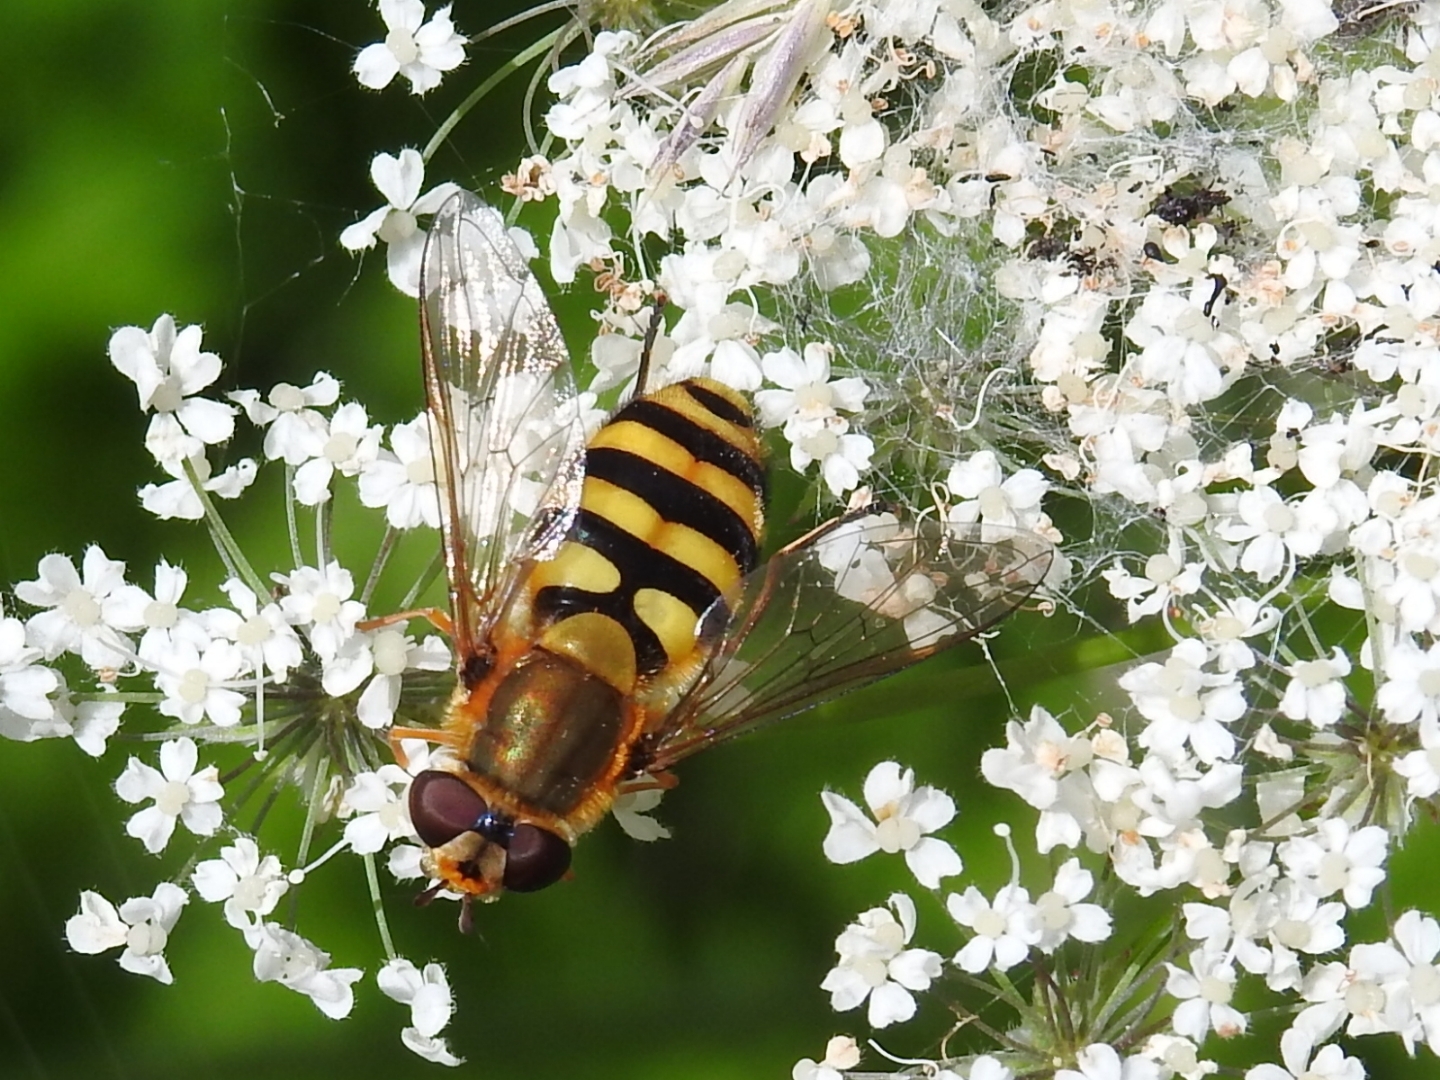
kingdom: Animalia
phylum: Arthropoda
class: Insecta
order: Diptera
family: Syrphidae
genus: Syrphus
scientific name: Syrphus
